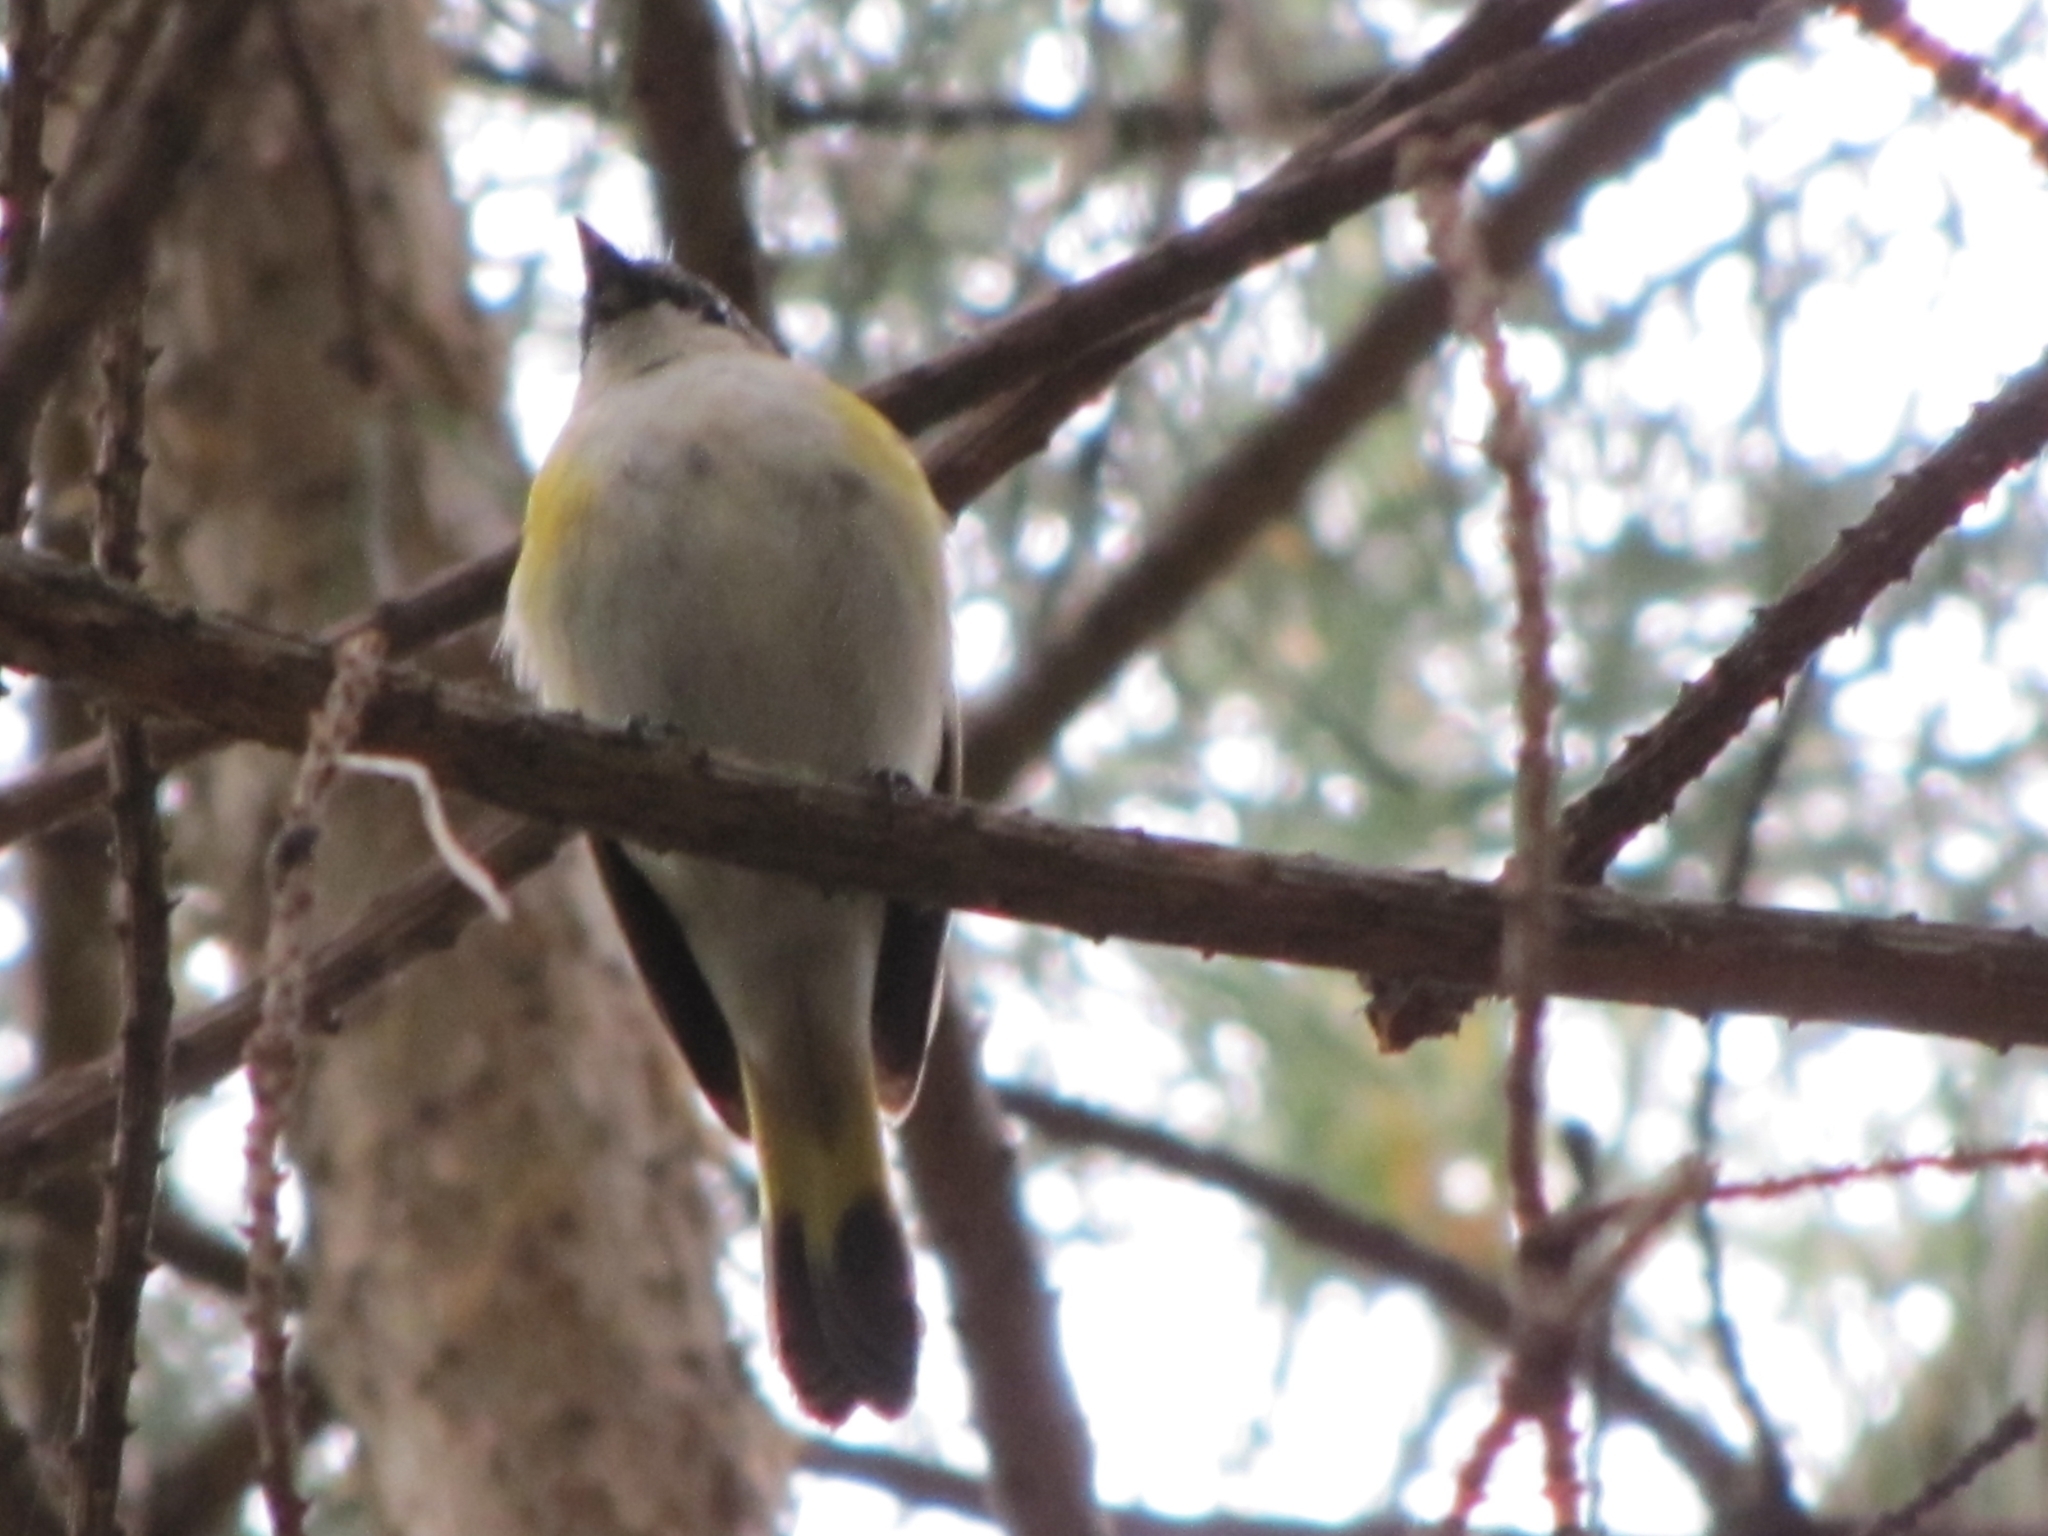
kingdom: Animalia
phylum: Chordata
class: Aves
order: Passeriformes
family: Parulidae
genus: Setophaga
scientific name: Setophaga ruticilla
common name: American redstart
